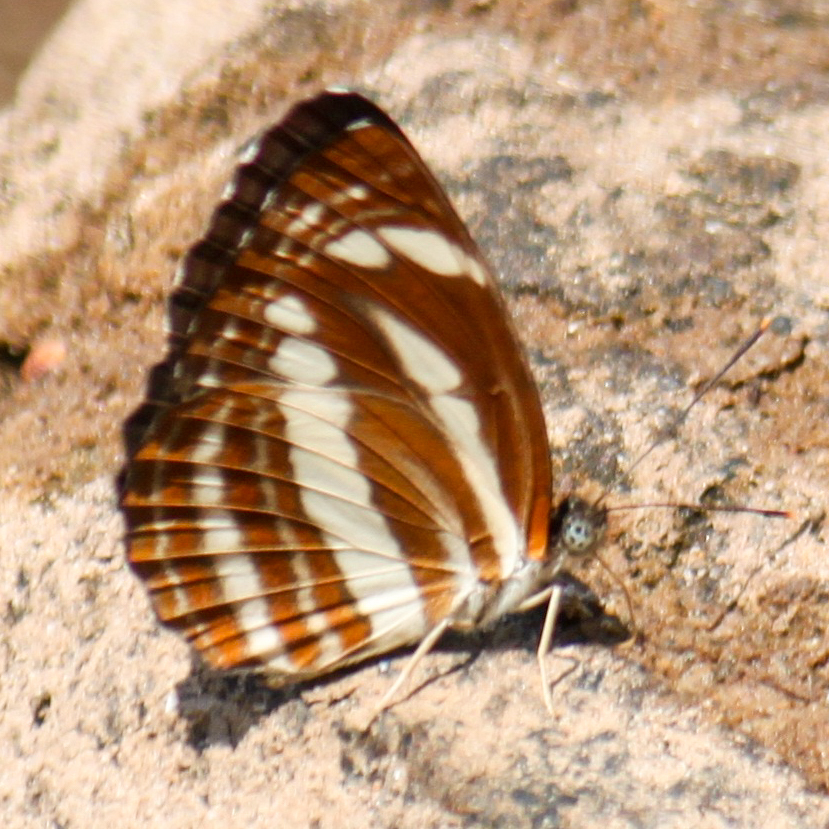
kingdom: Animalia
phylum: Arthropoda
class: Insecta
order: Lepidoptera
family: Nymphalidae
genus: Neptis
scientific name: Neptis clinia
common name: Southern sullied sailer
